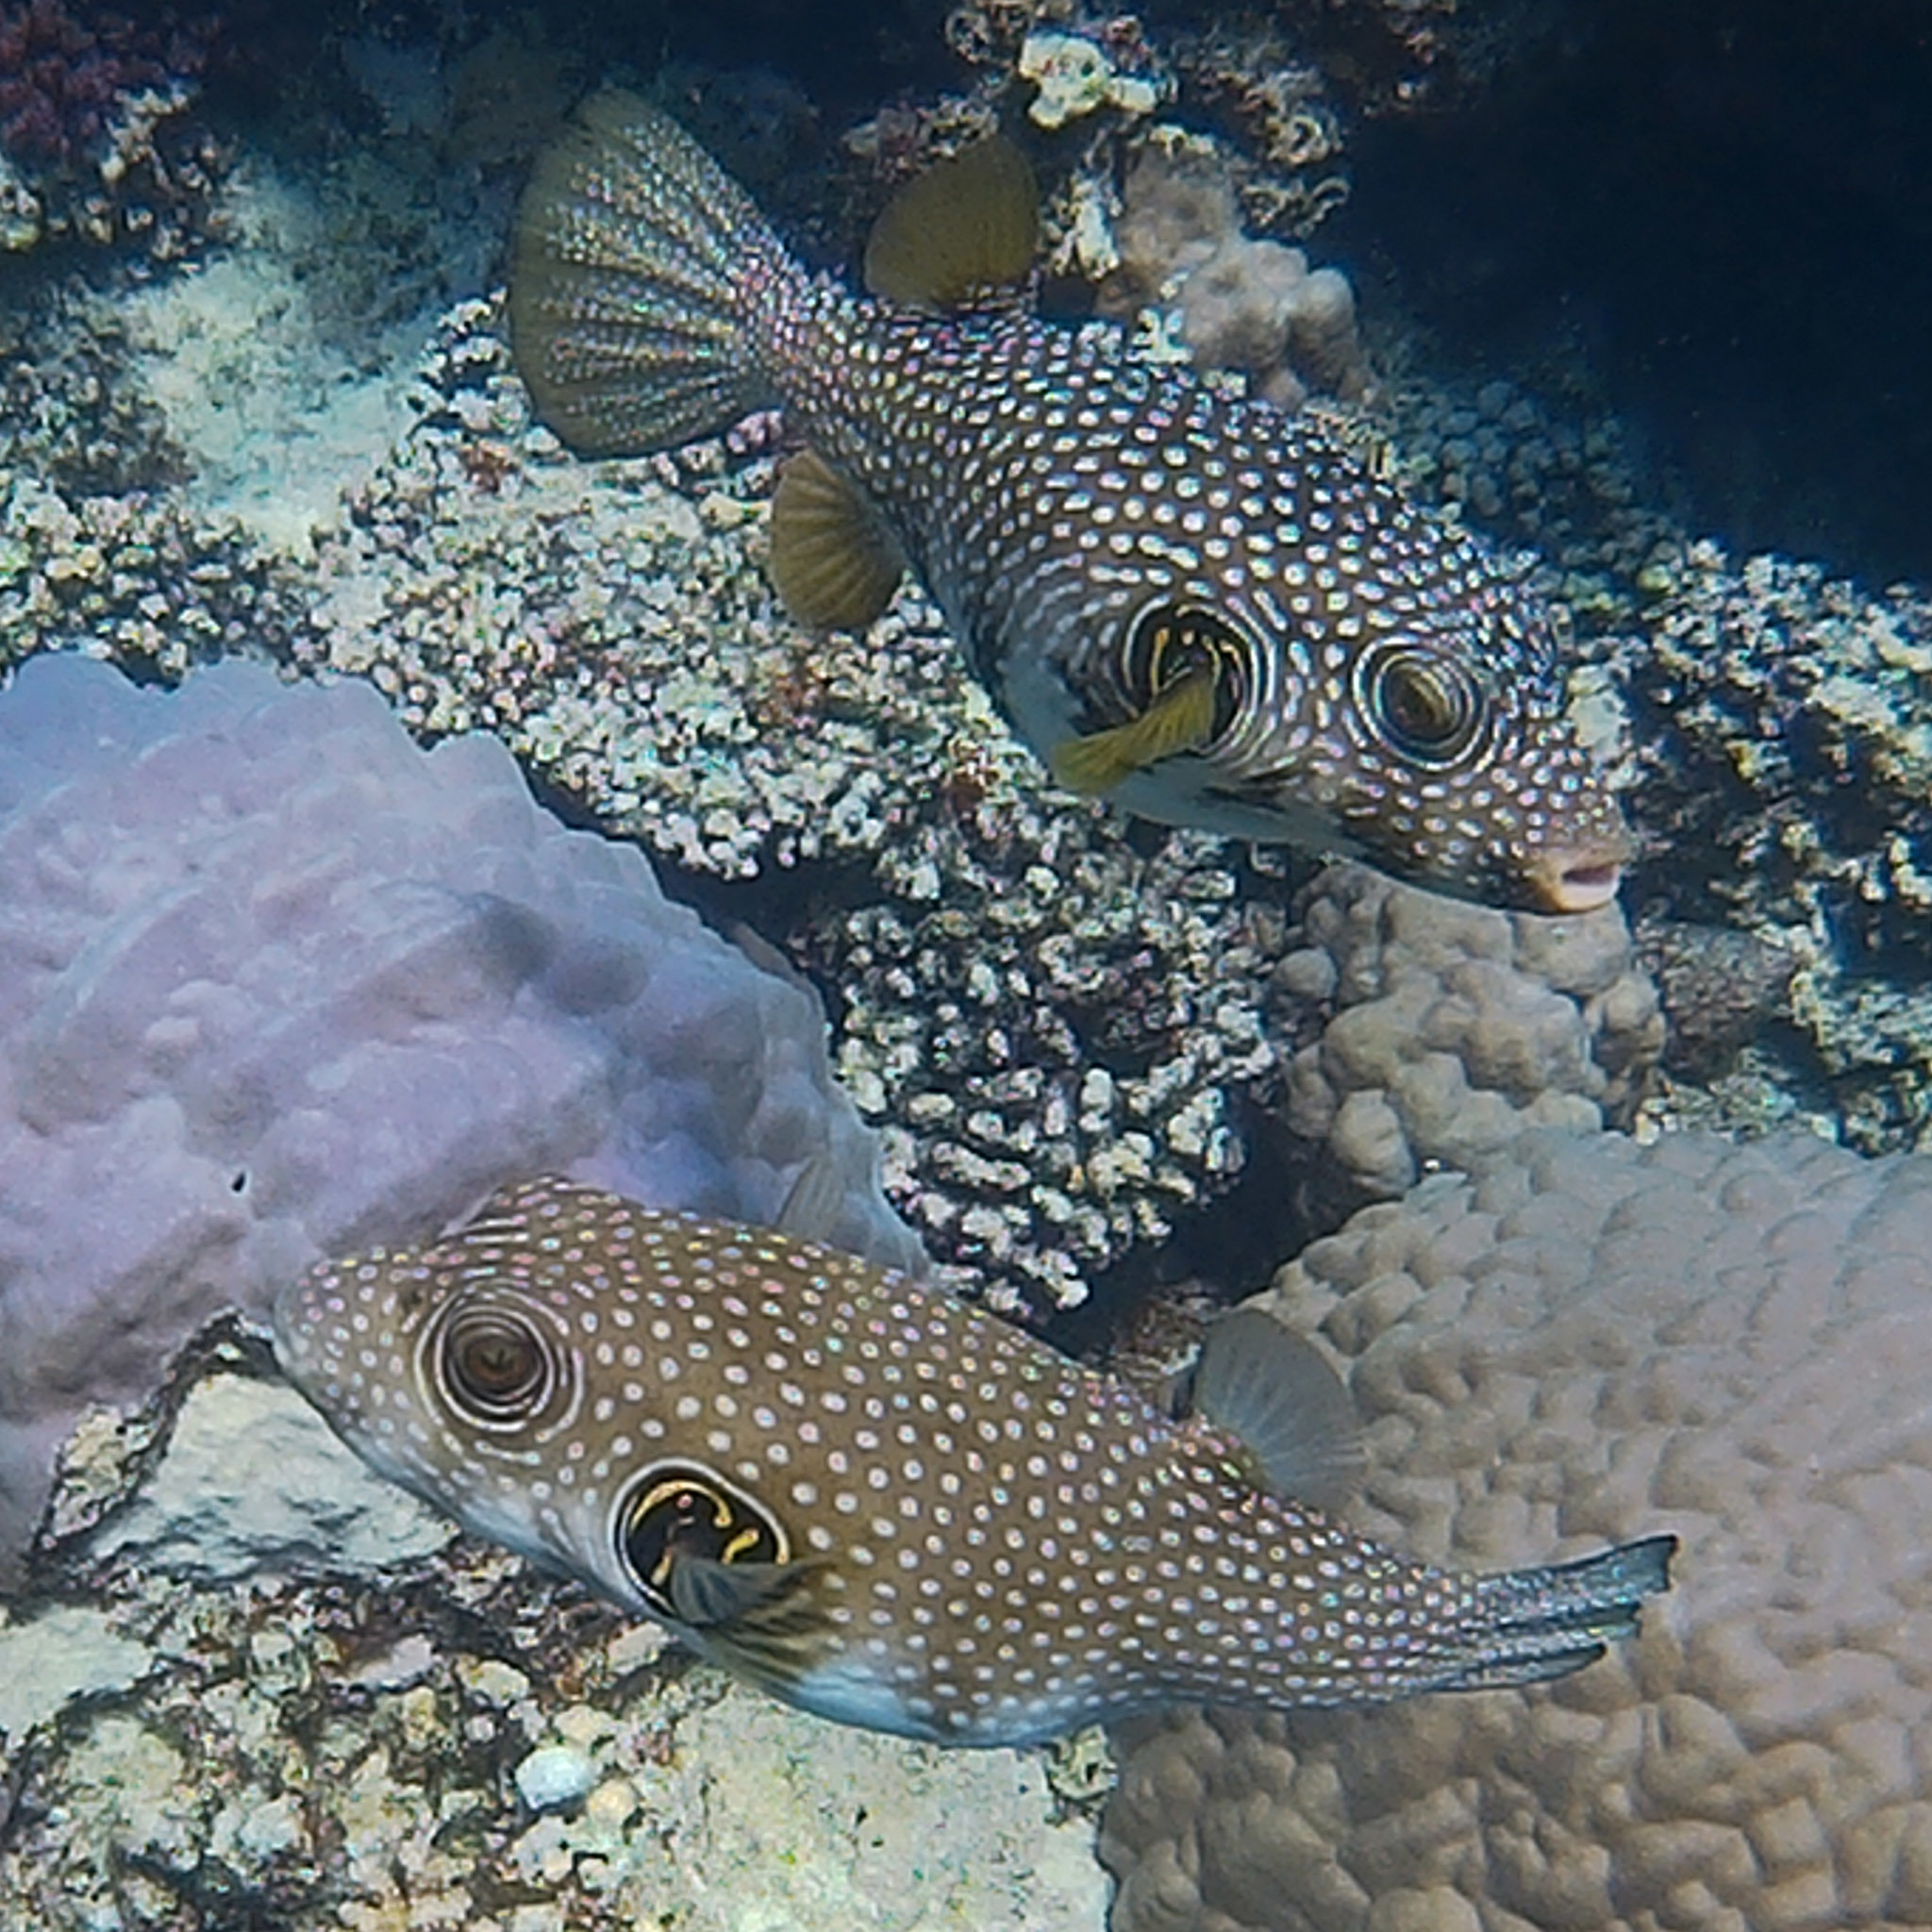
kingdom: Animalia
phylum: Chordata
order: Tetraodontiformes
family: Tetraodontidae
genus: Arothron
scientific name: Arothron hispidus
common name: Stripebelly puffer
